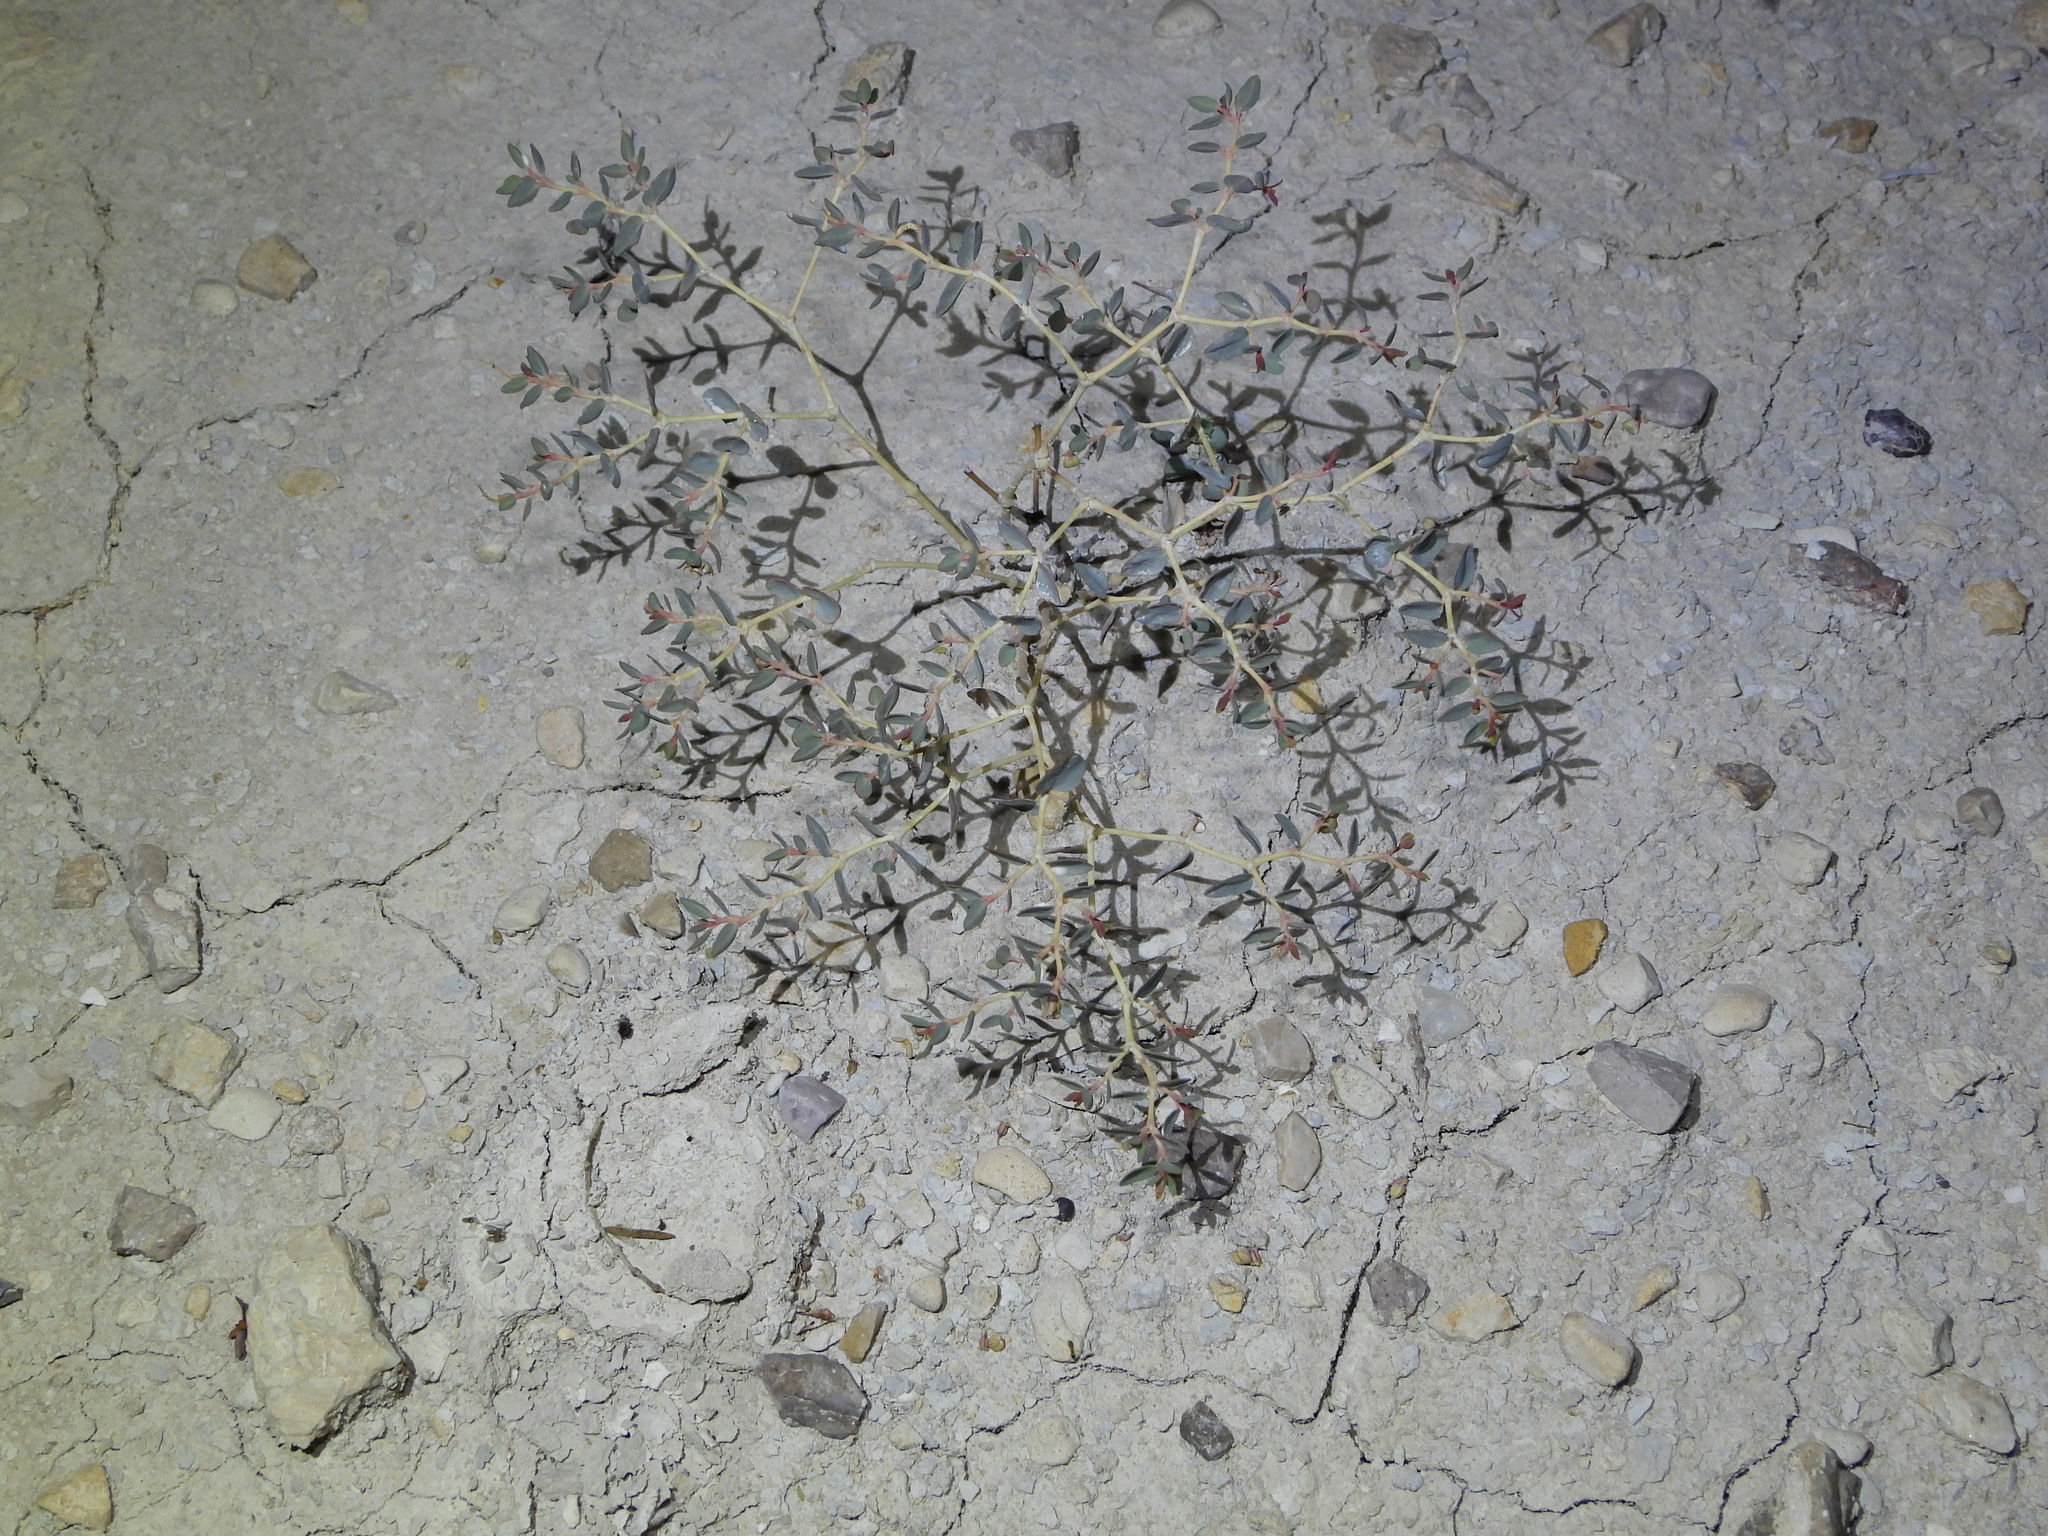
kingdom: Plantae
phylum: Tracheophyta
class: Magnoliopsida
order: Malpighiales
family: Euphorbiaceae
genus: Euphorbia
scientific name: Euphorbia perennans
